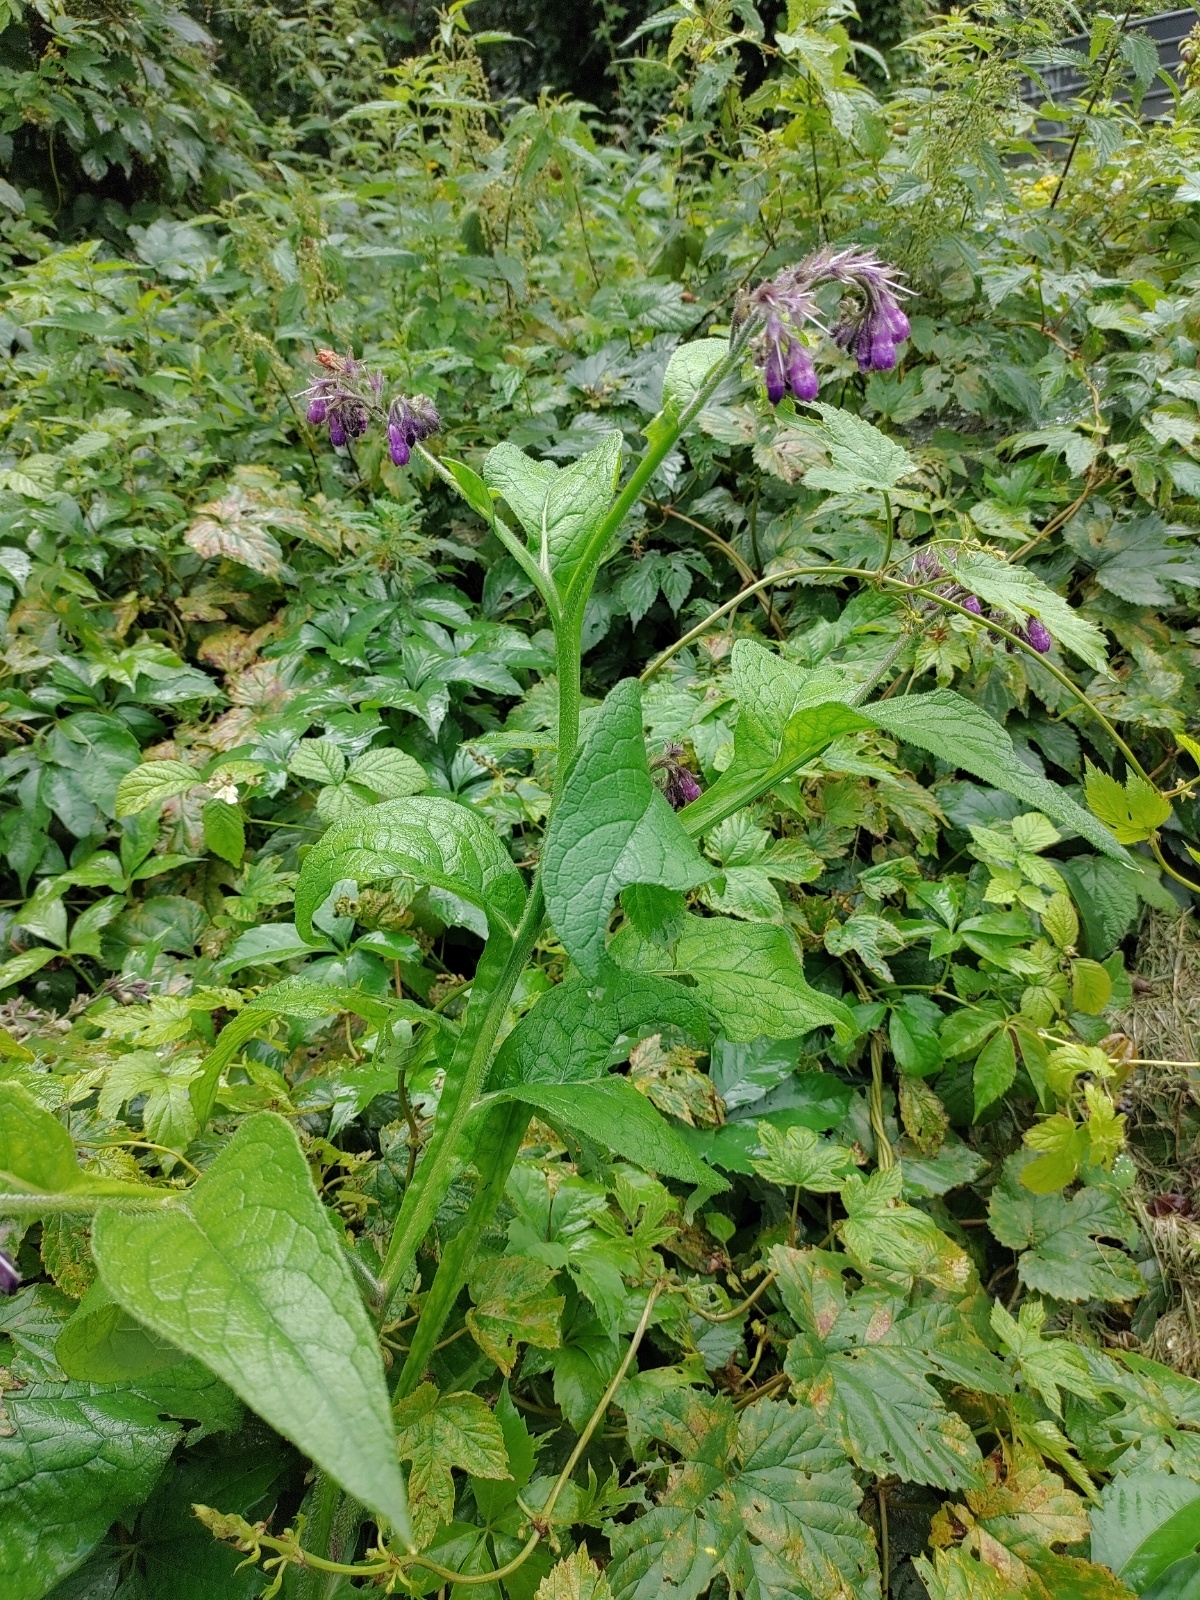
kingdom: Plantae
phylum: Tracheophyta
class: Magnoliopsida
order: Boraginales
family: Boraginaceae
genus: Symphytum
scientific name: Symphytum officinale
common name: Common comfrey
